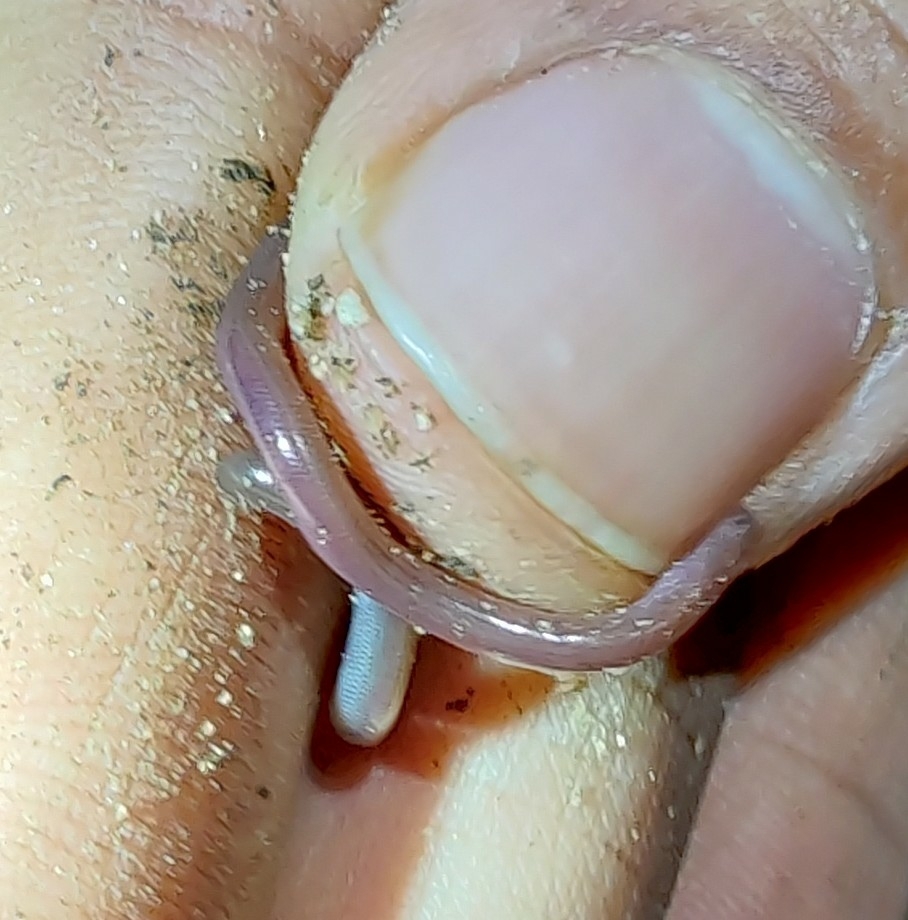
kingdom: Animalia
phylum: Chordata
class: Squamata
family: Typhlopidae
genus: Indotyphlops
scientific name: Indotyphlops braminus
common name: Brahminy blindsnake
